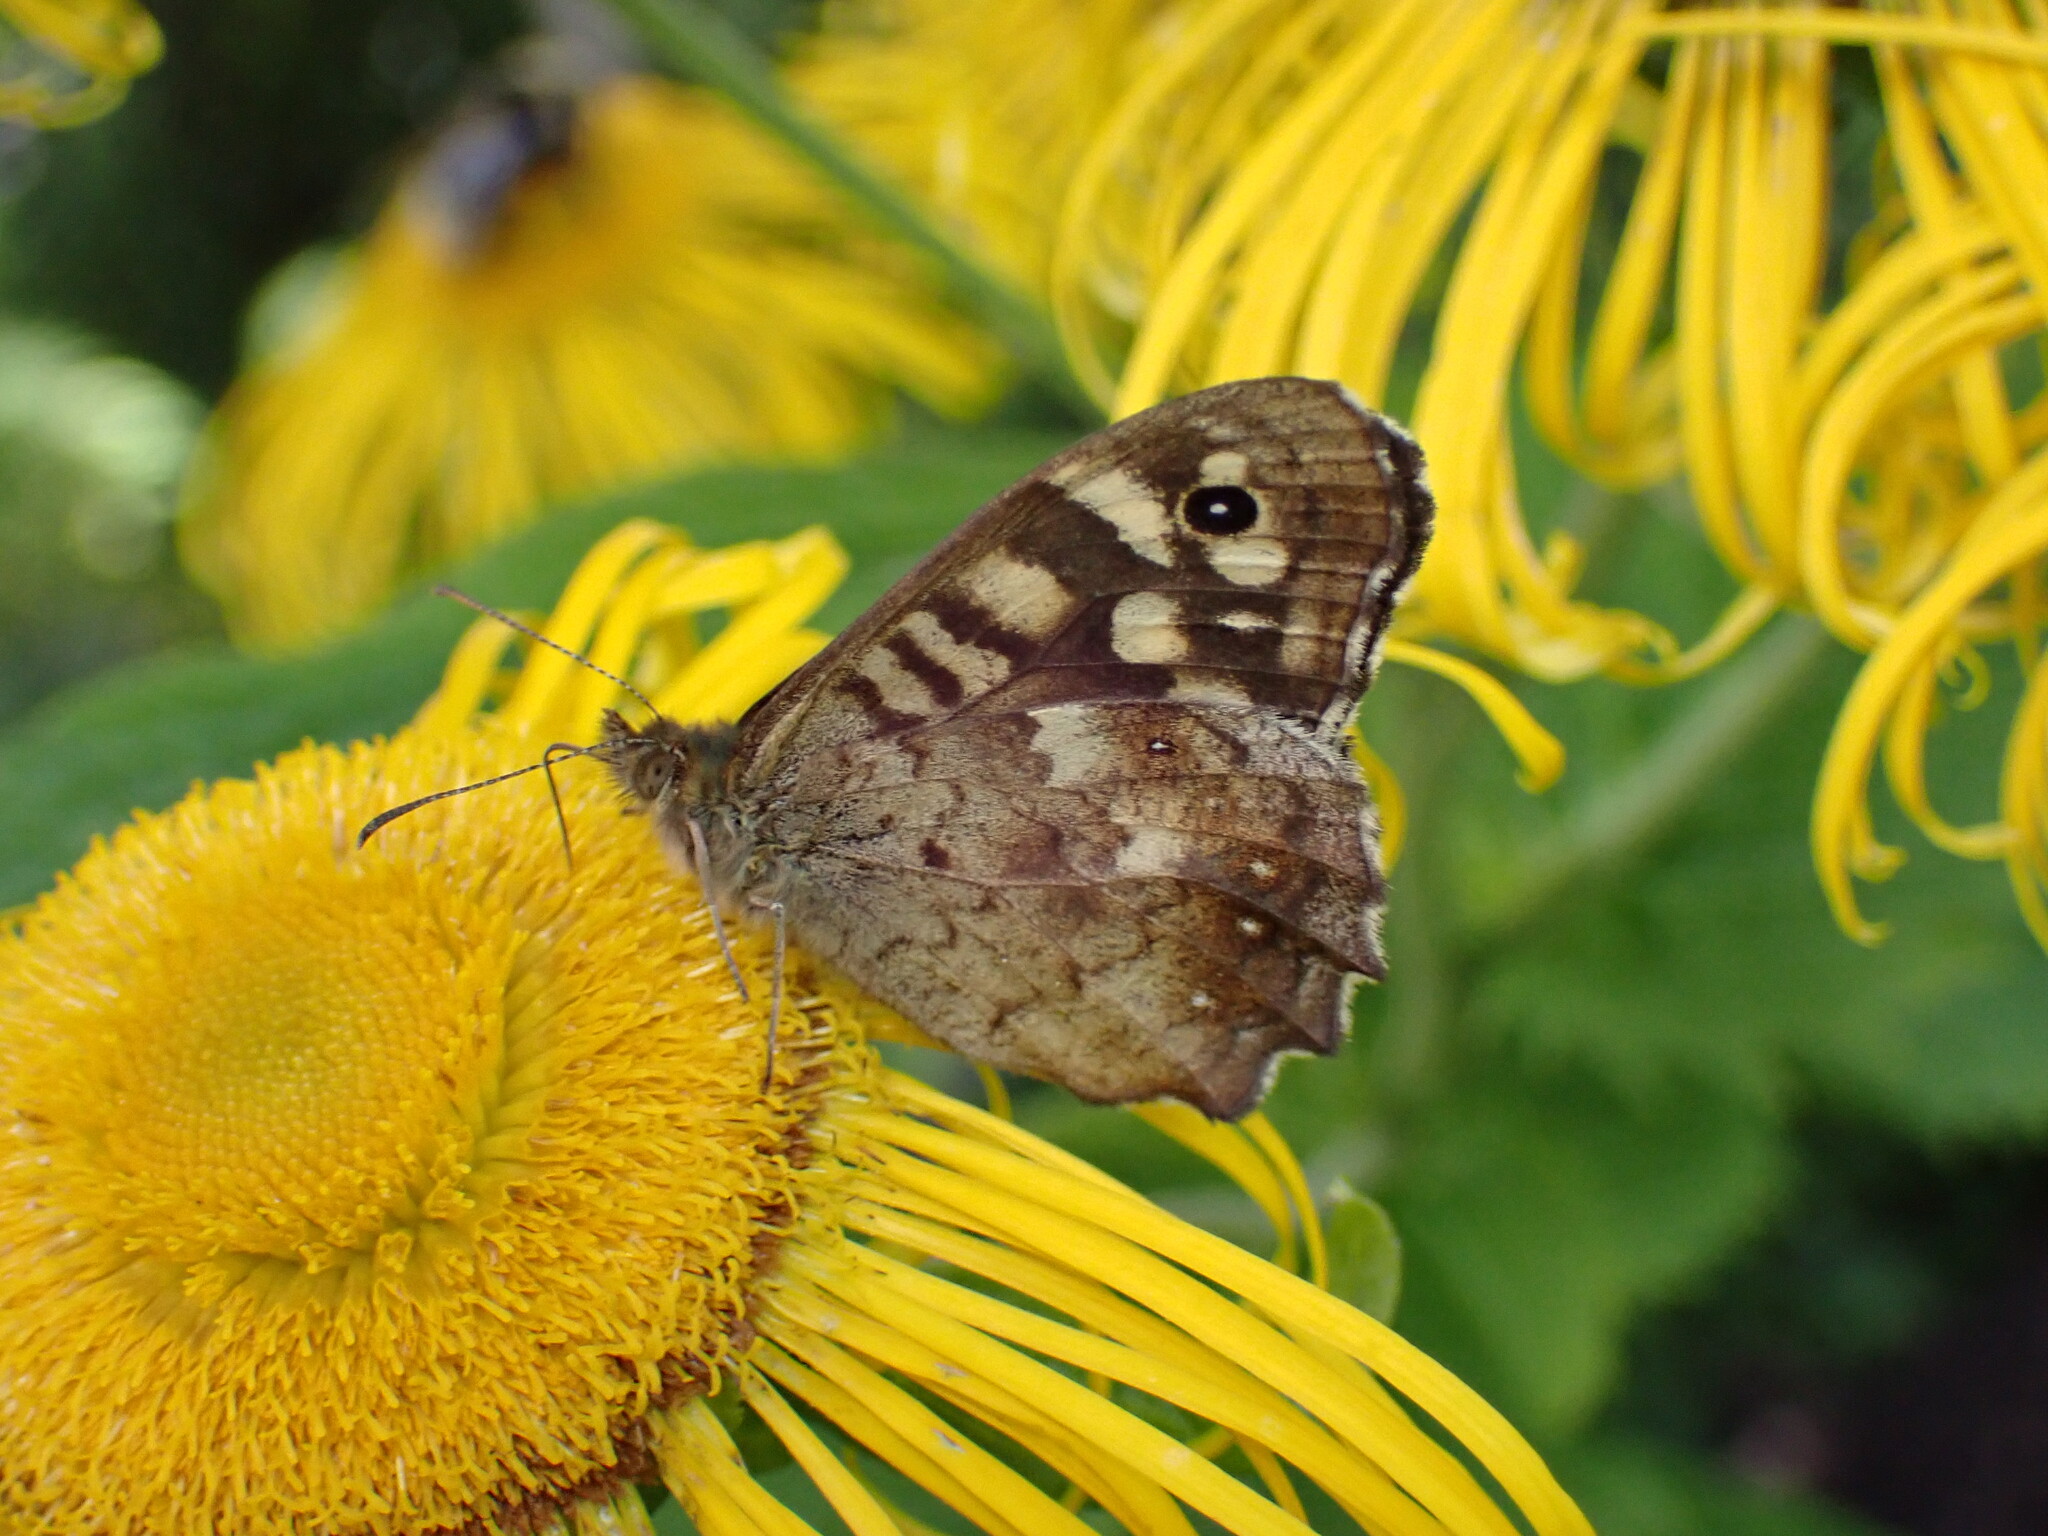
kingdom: Animalia
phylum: Arthropoda
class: Insecta
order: Lepidoptera
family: Nymphalidae
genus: Pararge
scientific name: Pararge aegeria
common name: Speckled wood
